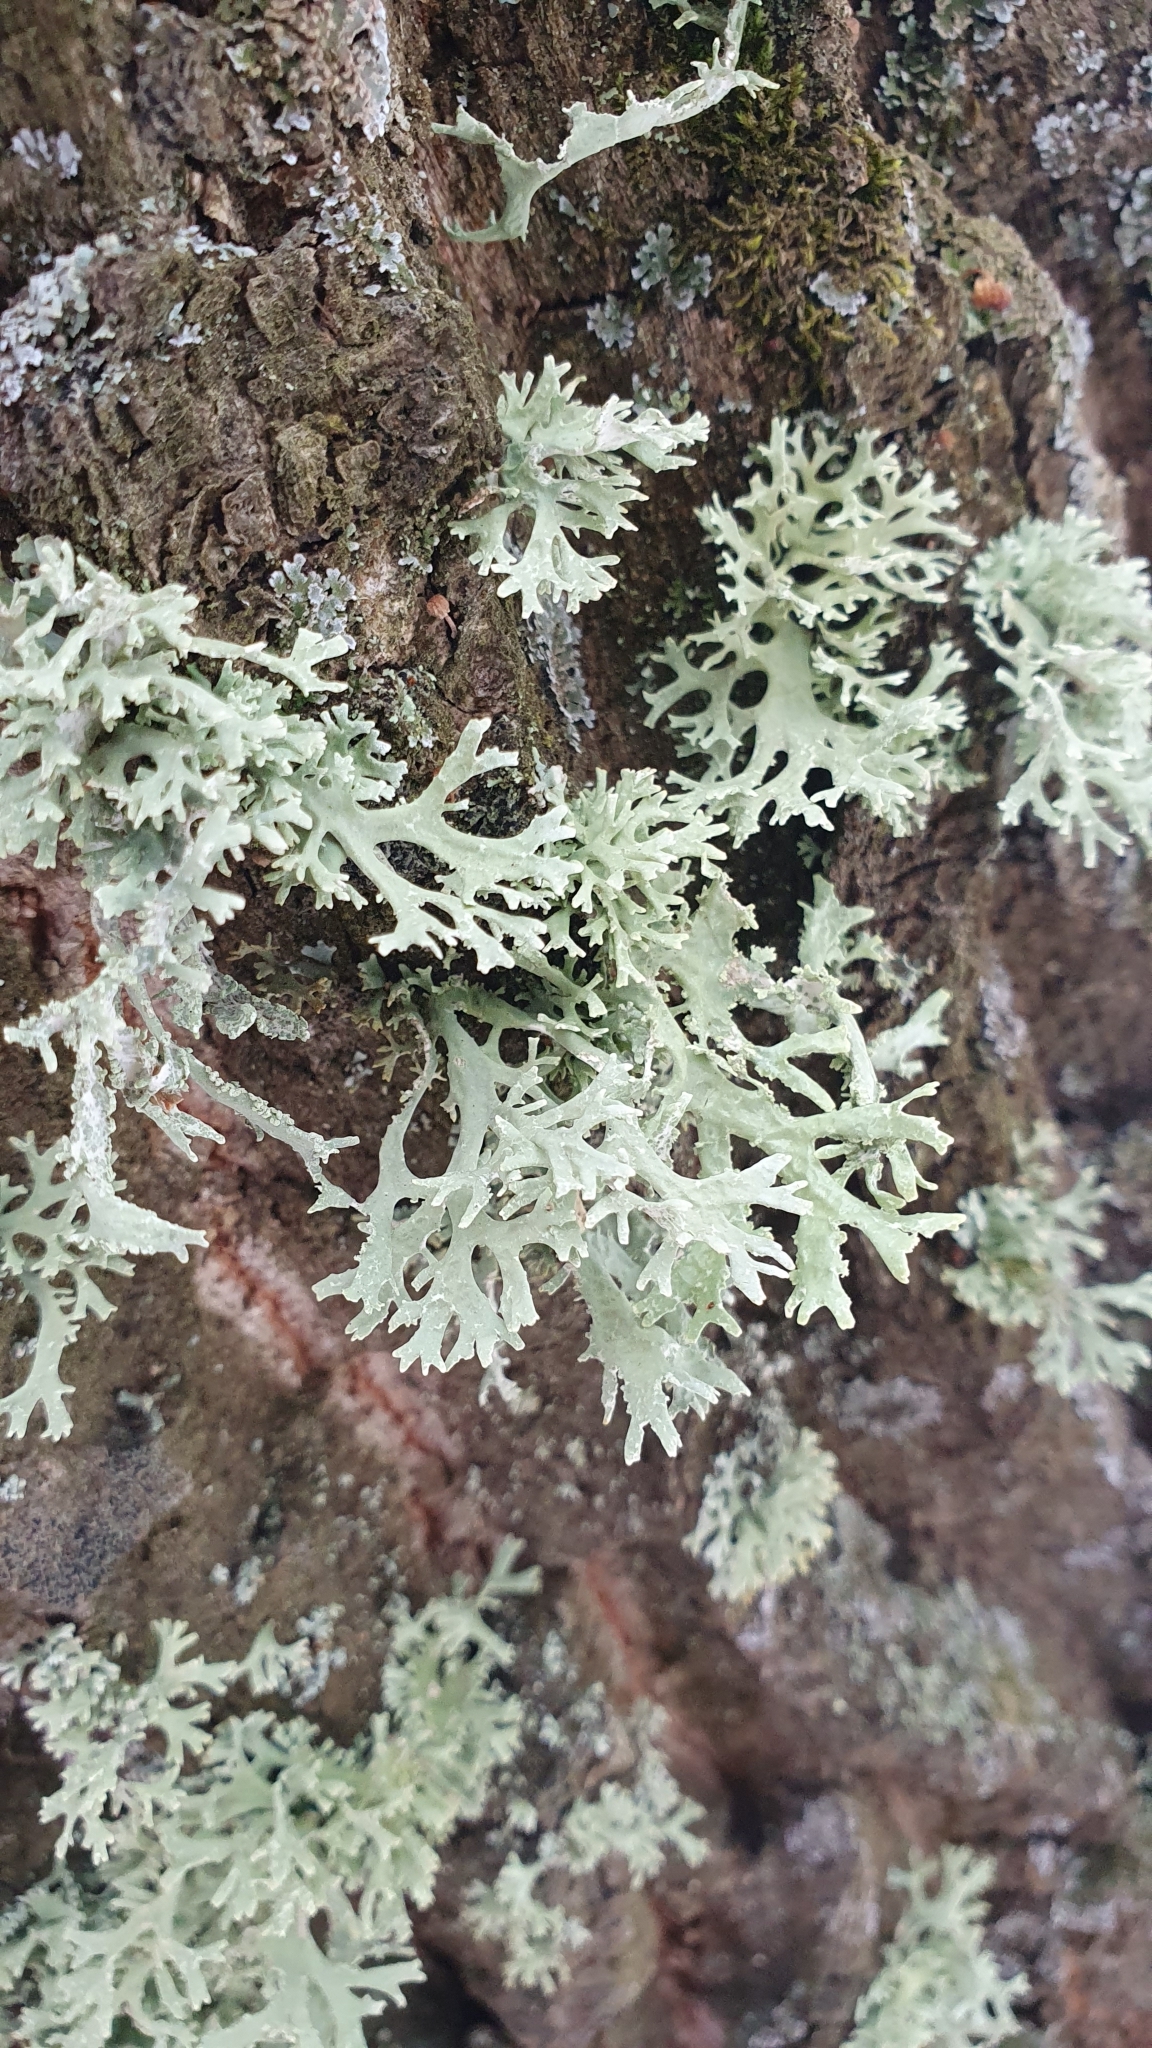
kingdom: Fungi
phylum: Ascomycota
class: Lecanoromycetes
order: Lecanorales
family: Parmeliaceae
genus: Evernia
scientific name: Evernia prunastri
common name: Oak moss
